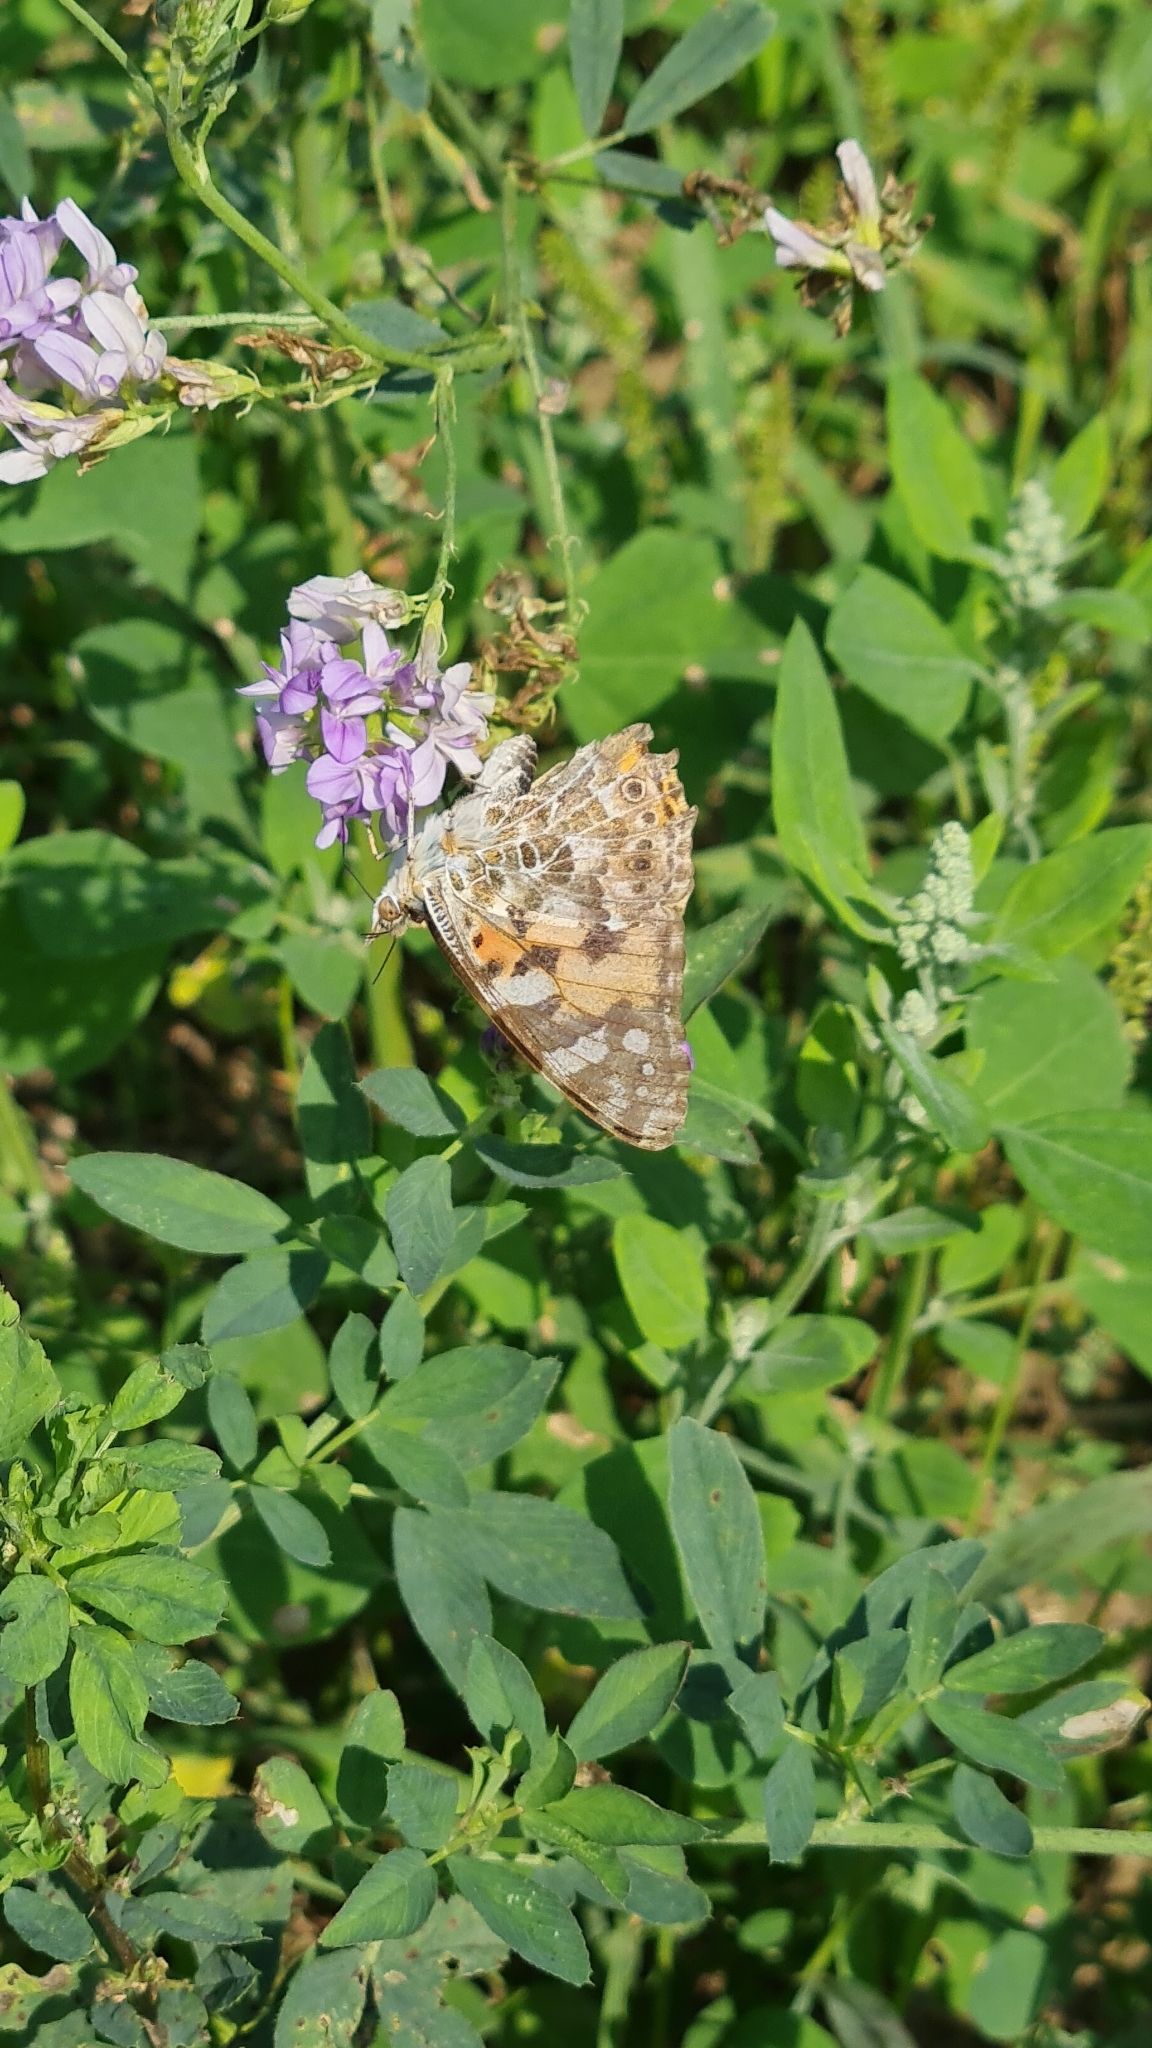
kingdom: Animalia
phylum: Arthropoda
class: Insecta
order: Lepidoptera
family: Nymphalidae
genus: Vanessa
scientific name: Vanessa cardui
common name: Painted lady
